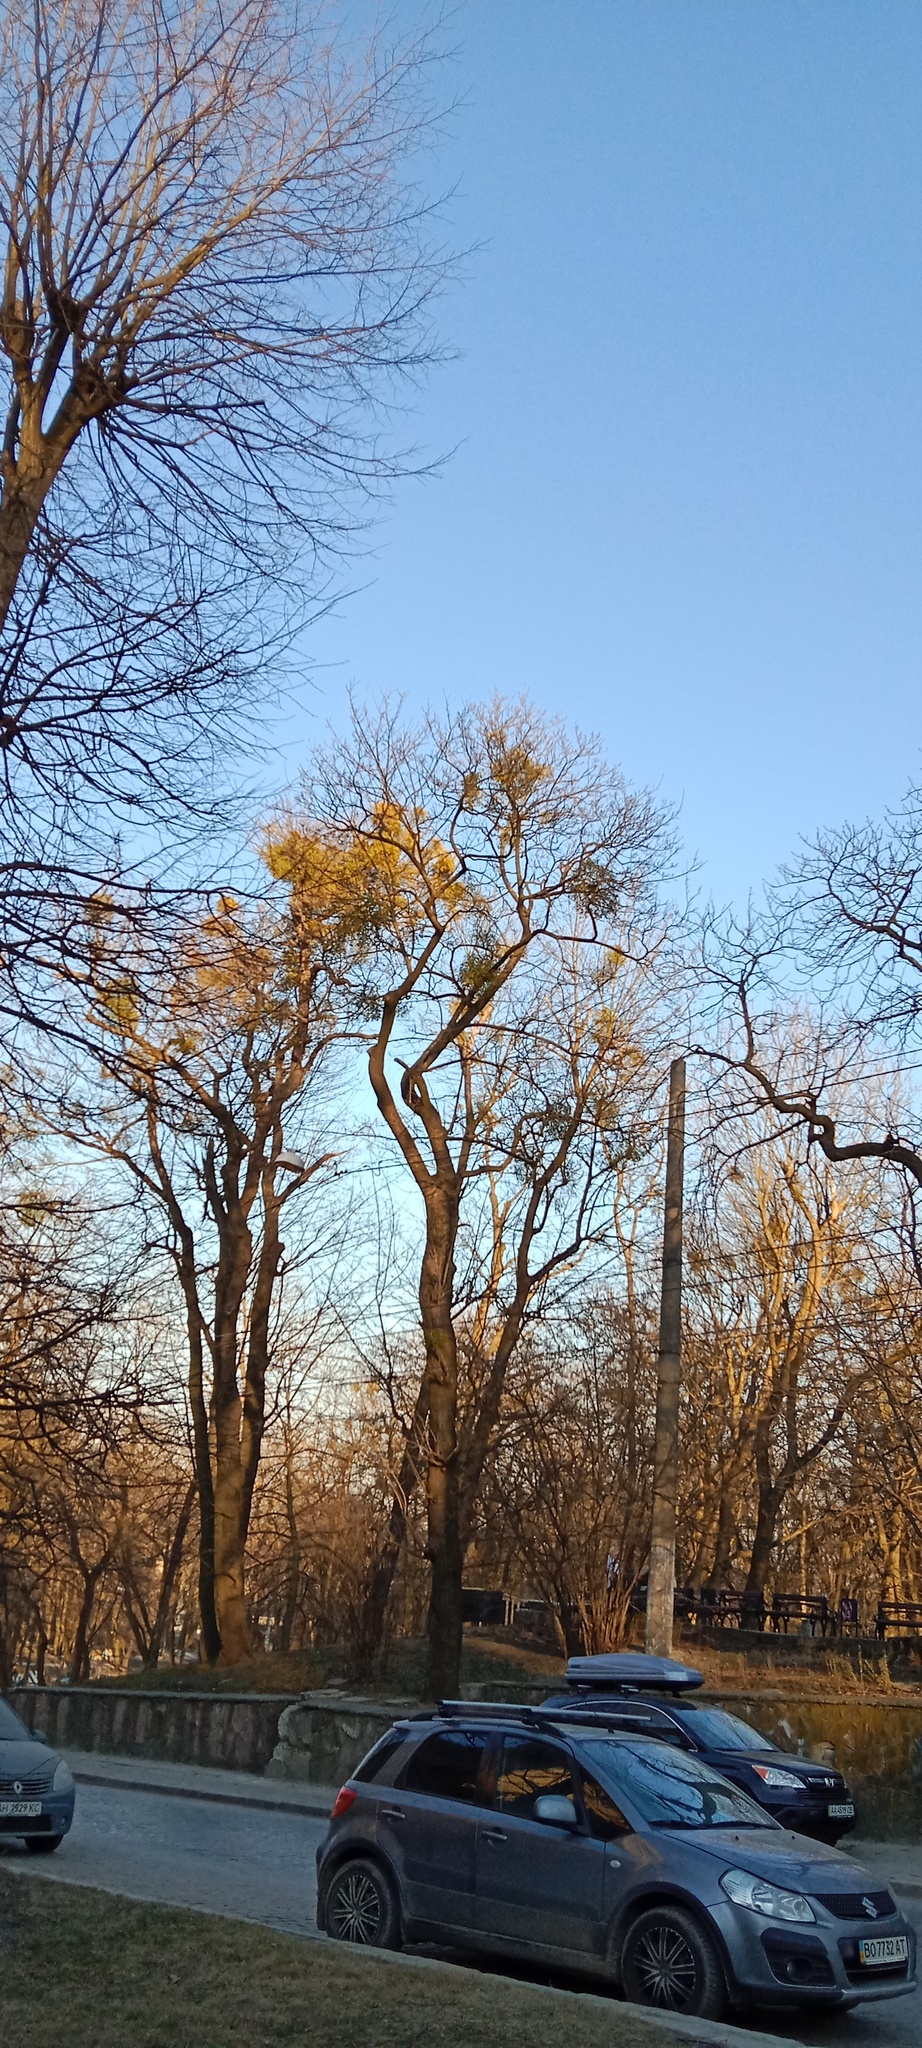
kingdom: Plantae
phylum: Tracheophyta
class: Magnoliopsida
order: Santalales
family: Viscaceae
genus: Viscum
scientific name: Viscum album
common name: Mistletoe
